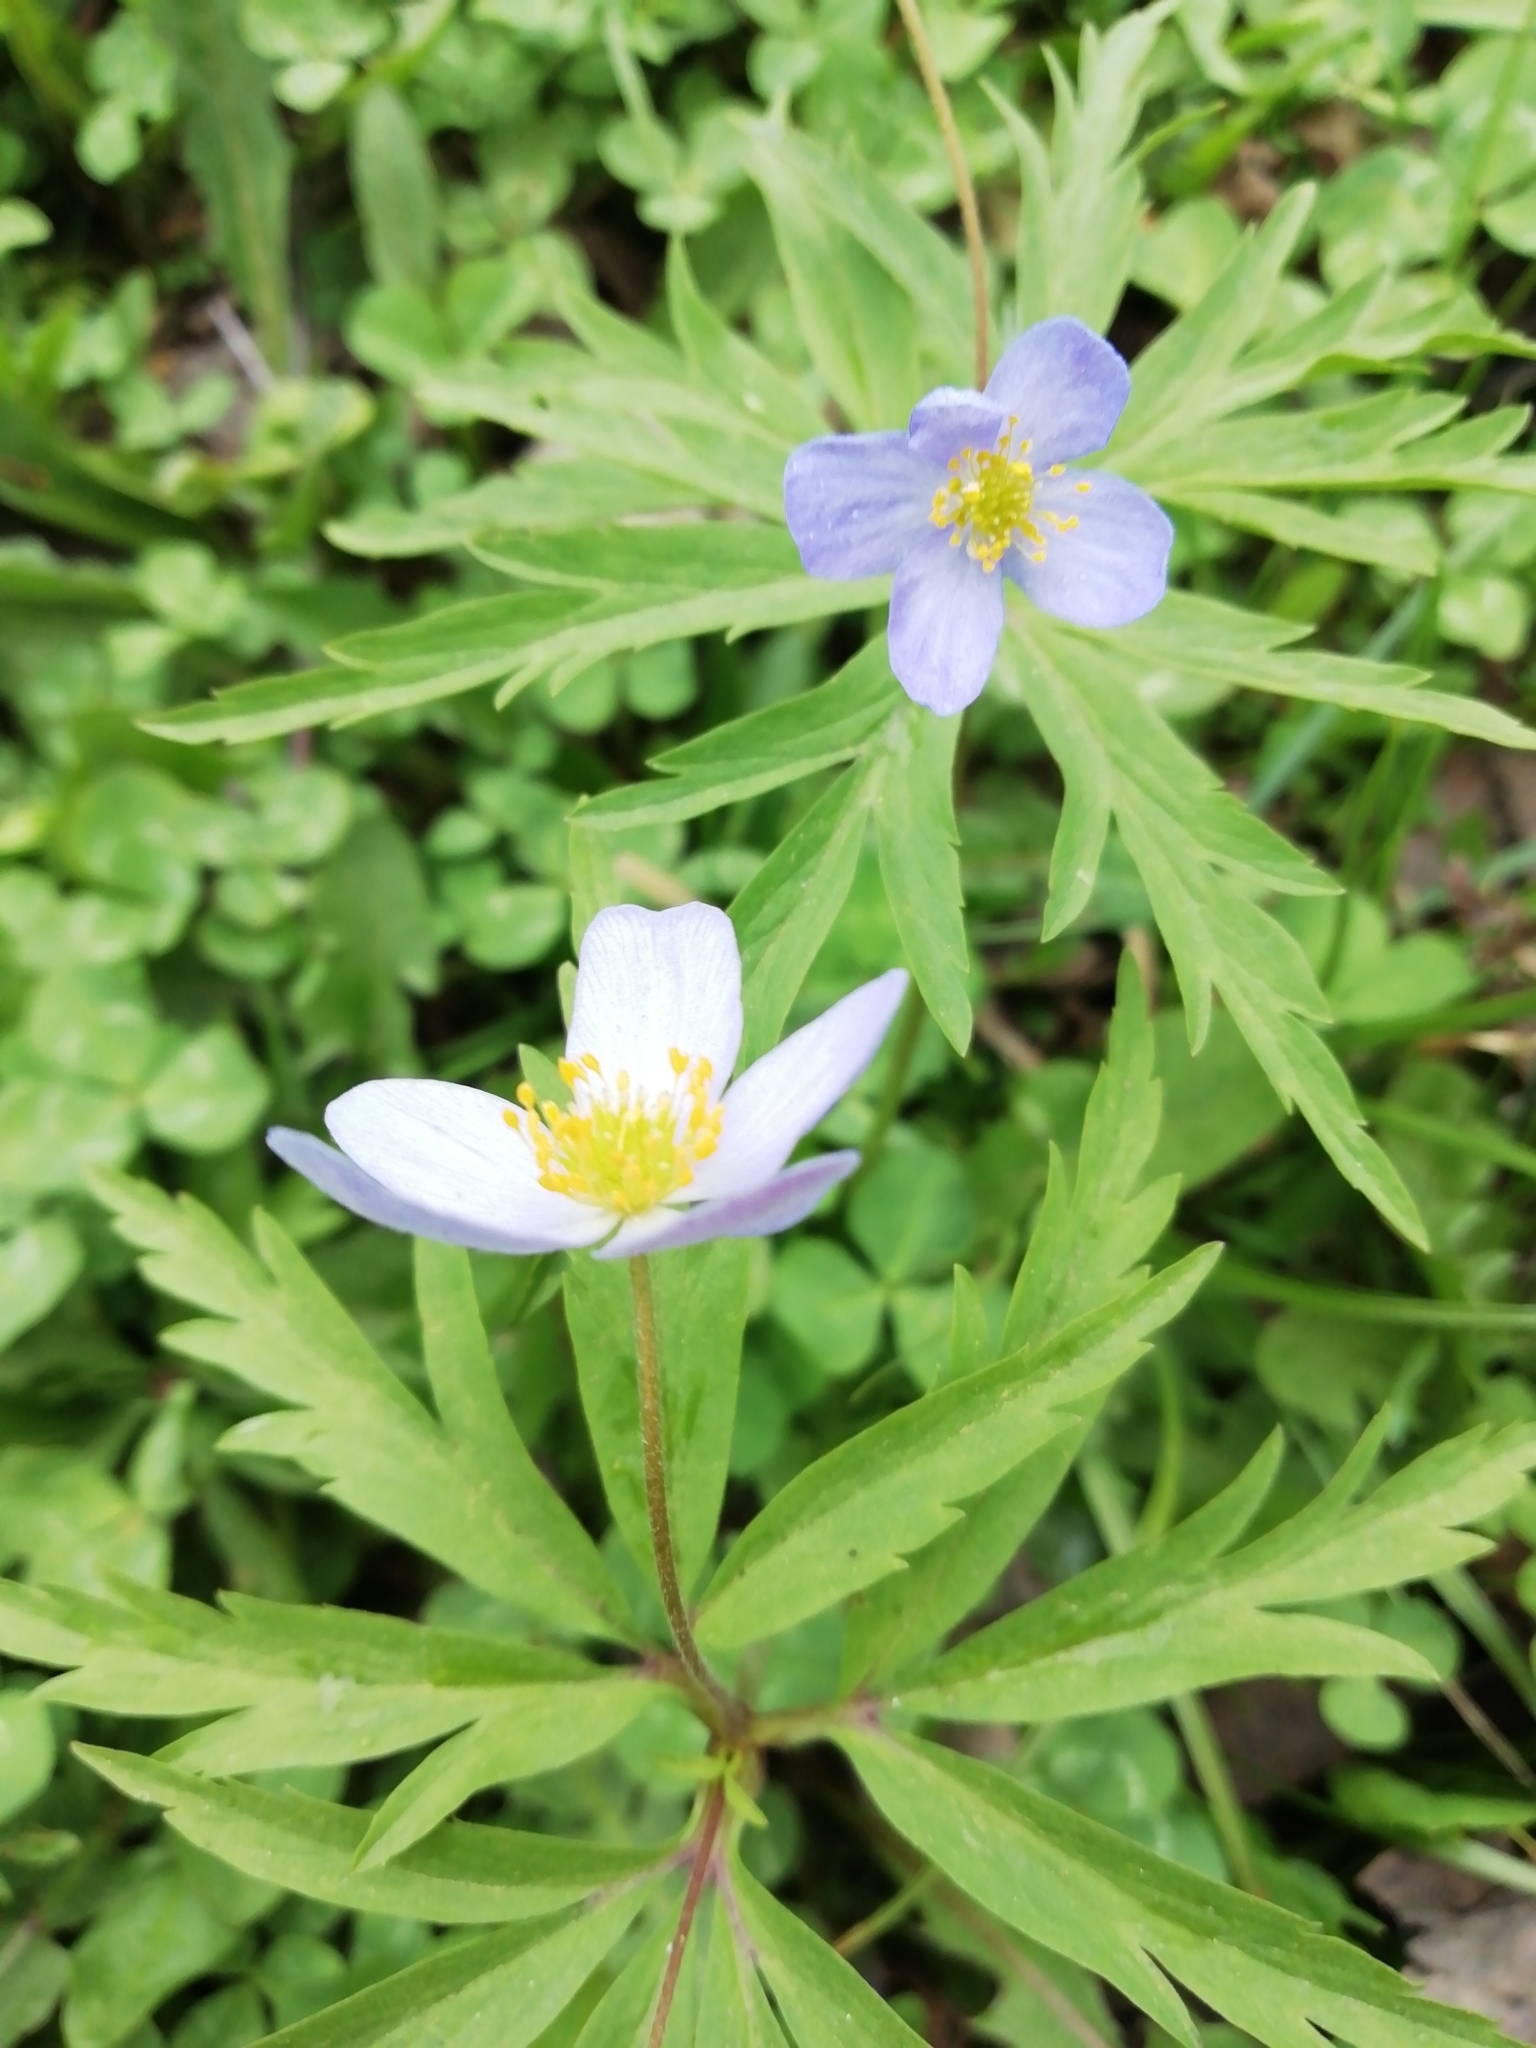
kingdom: Plantae
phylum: Tracheophyta
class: Magnoliopsida
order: Ranunculales
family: Ranunculaceae
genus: Anemone
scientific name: Anemone caerulea
